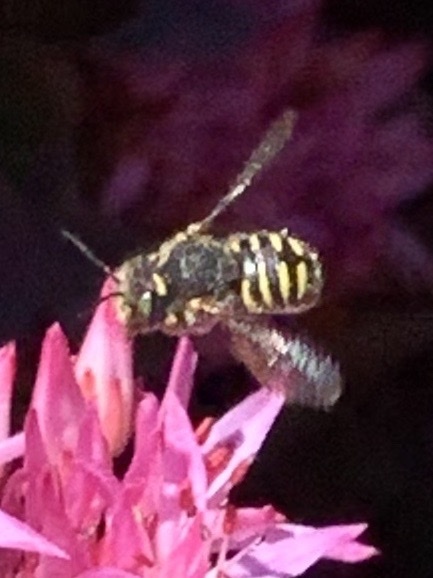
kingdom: Animalia
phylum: Arthropoda
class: Insecta
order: Hymenoptera
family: Megachilidae
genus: Anthidium
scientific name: Anthidium oblongatum
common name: Oblong wool carder bee
